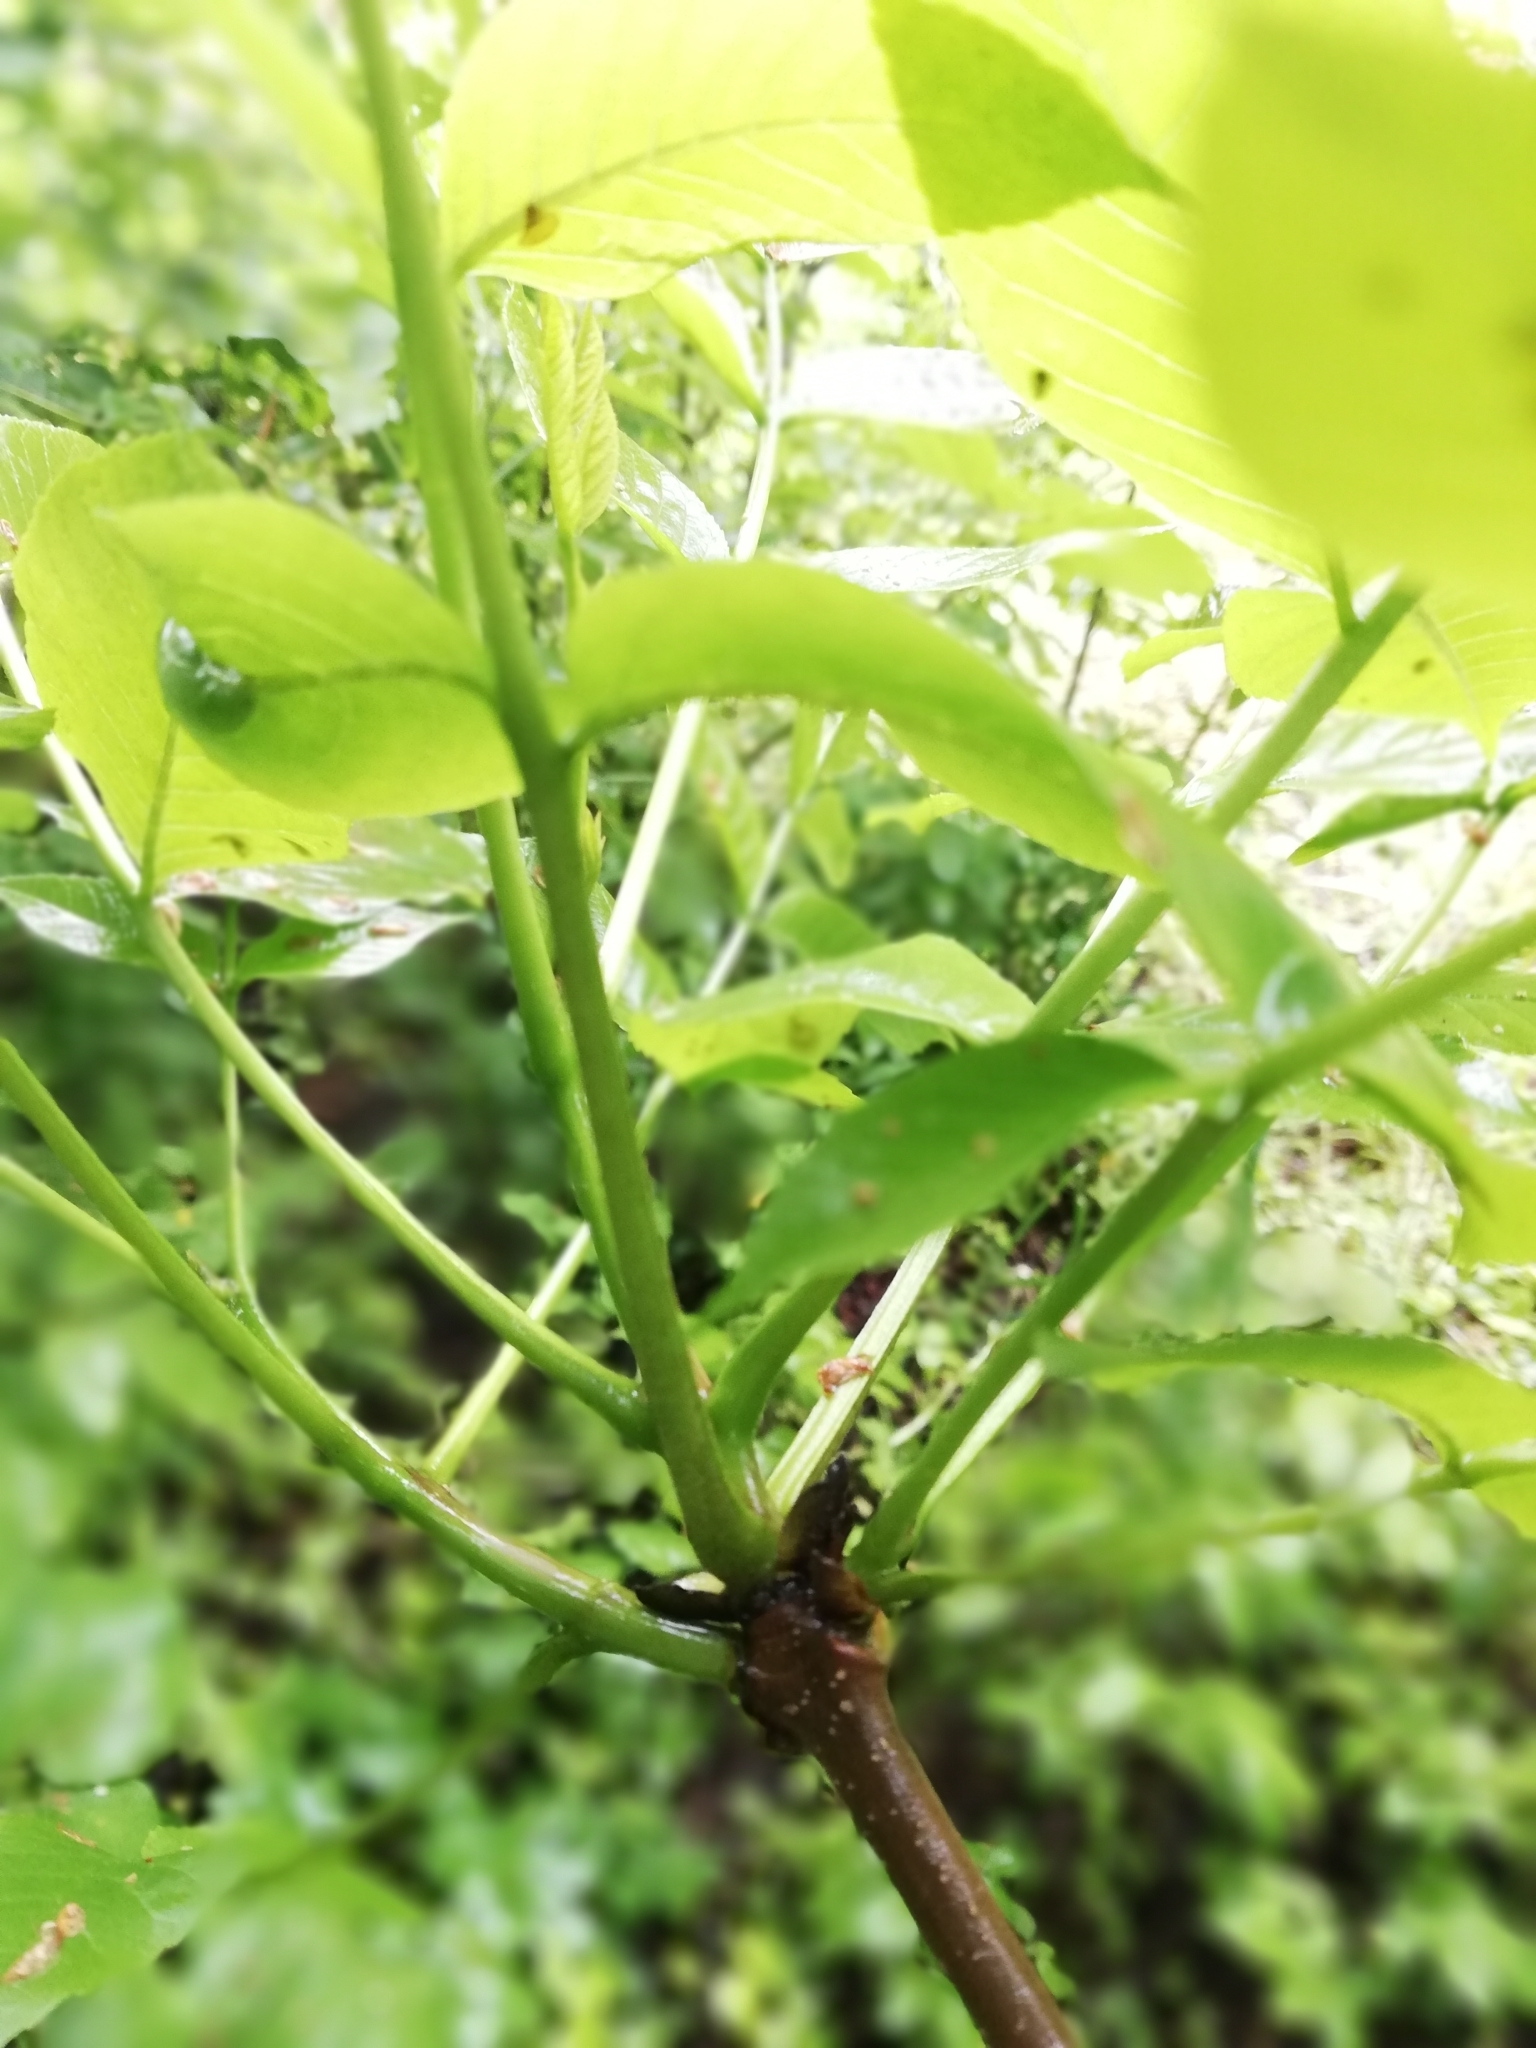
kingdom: Plantae
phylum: Tracheophyta
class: Magnoliopsida
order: Lamiales
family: Oleaceae
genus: Fraxinus
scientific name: Fraxinus excelsior
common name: European ash
